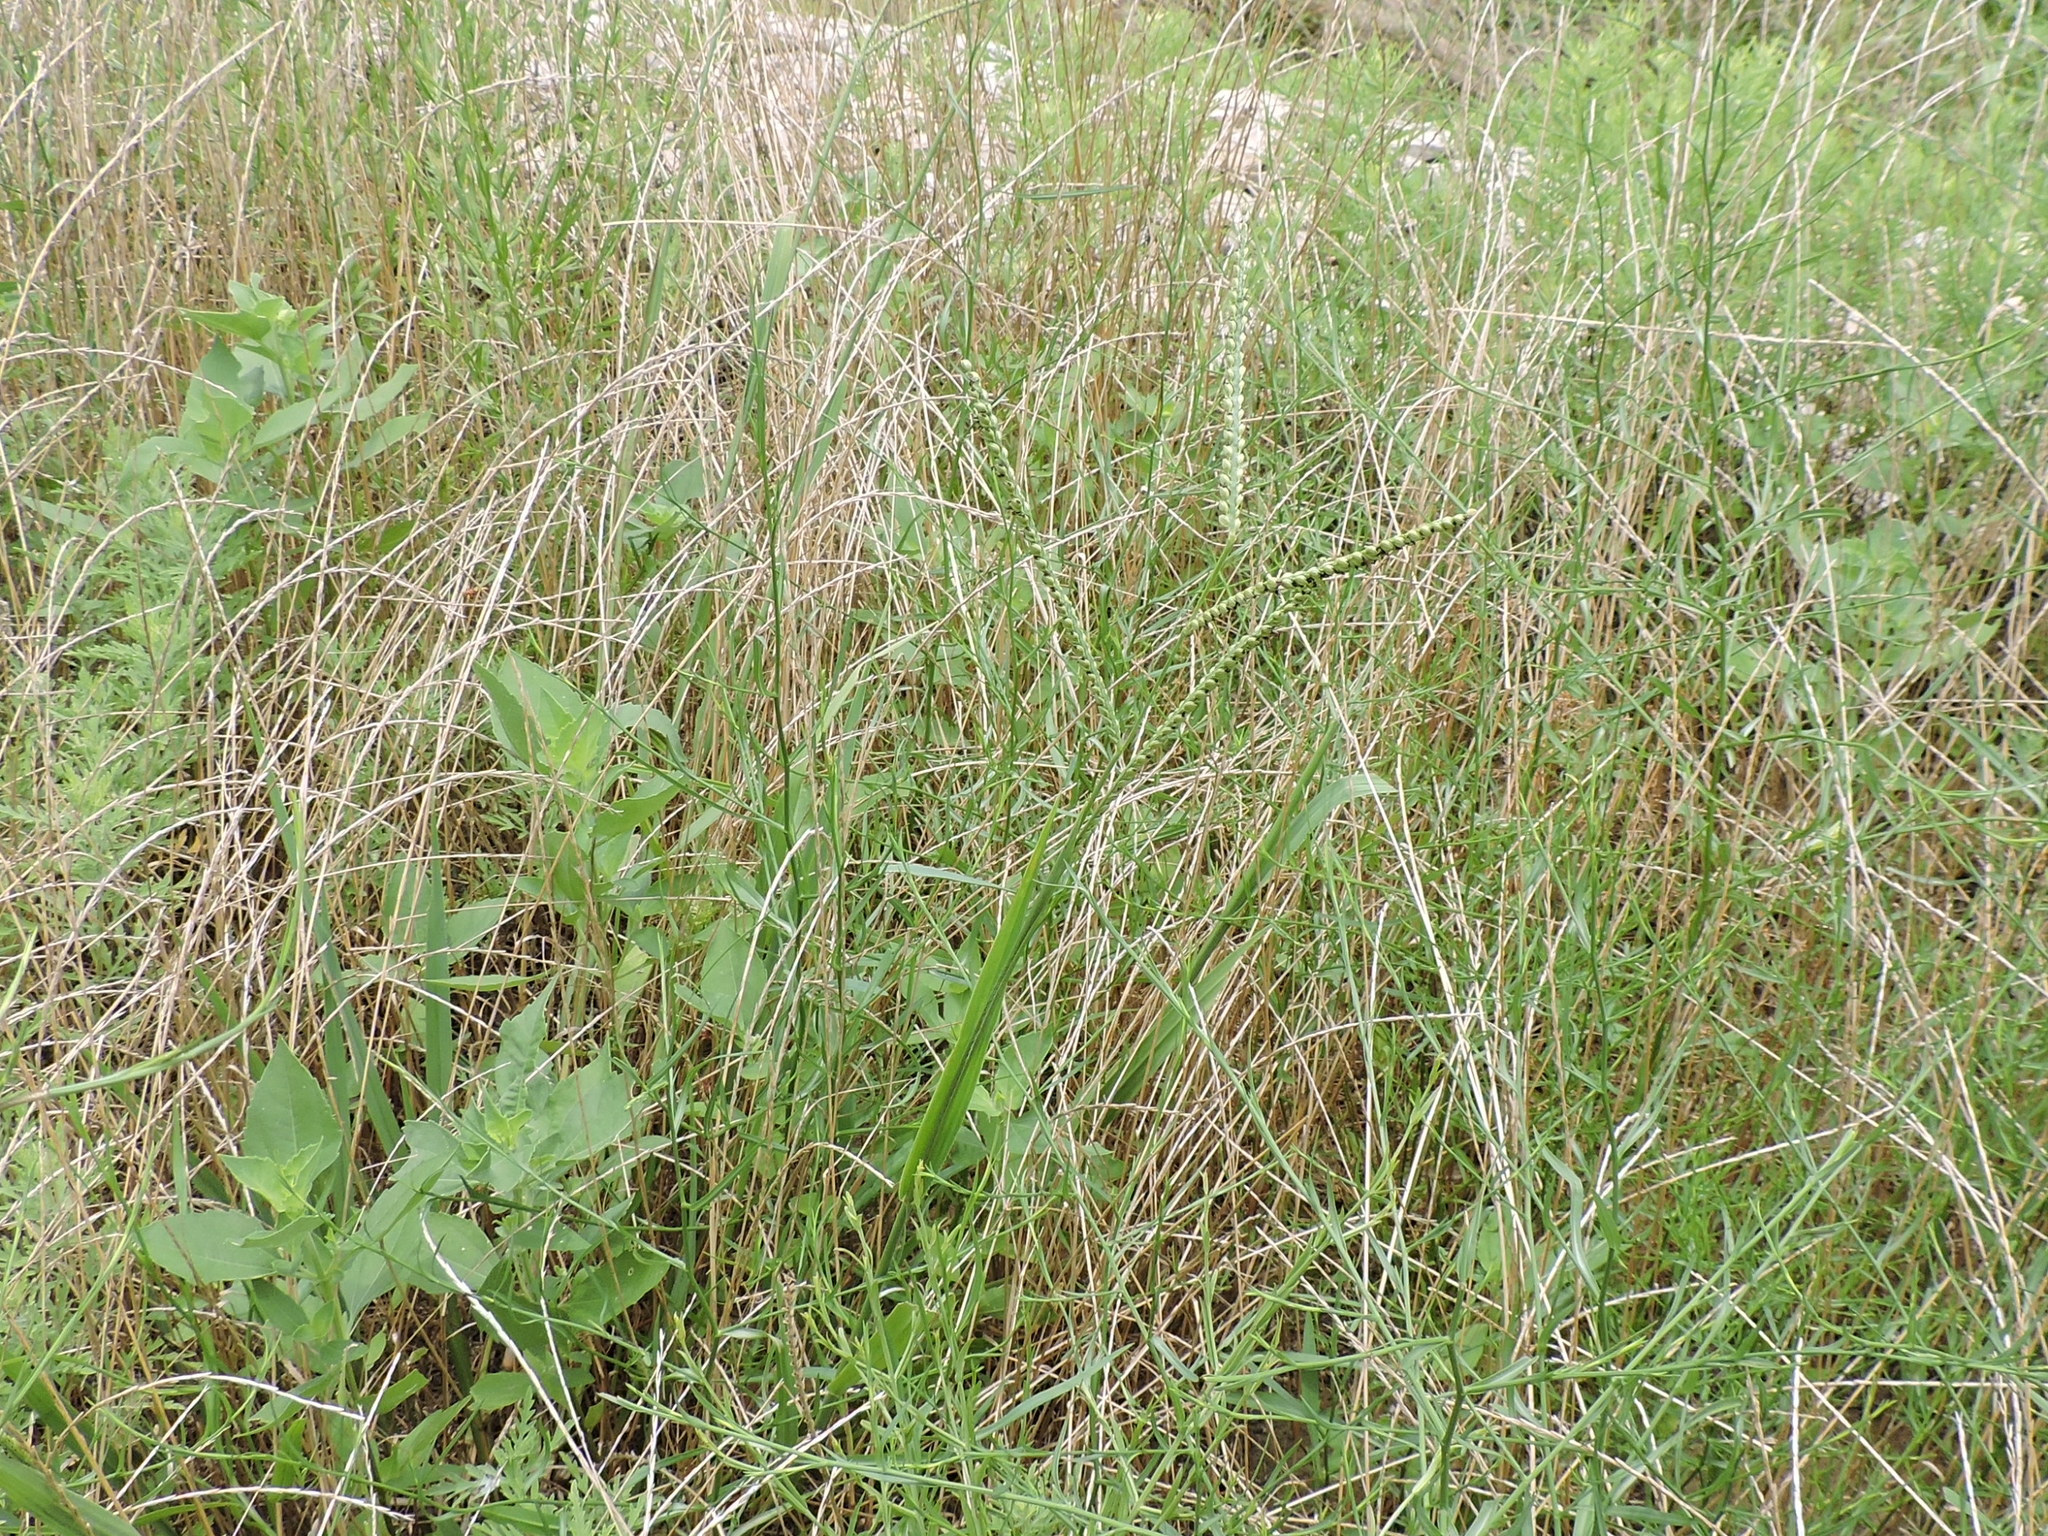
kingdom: Plantae
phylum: Tracheophyta
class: Liliopsida
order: Poales
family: Poaceae
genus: Paspalum
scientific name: Paspalum floridanum
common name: Florida paspalum
